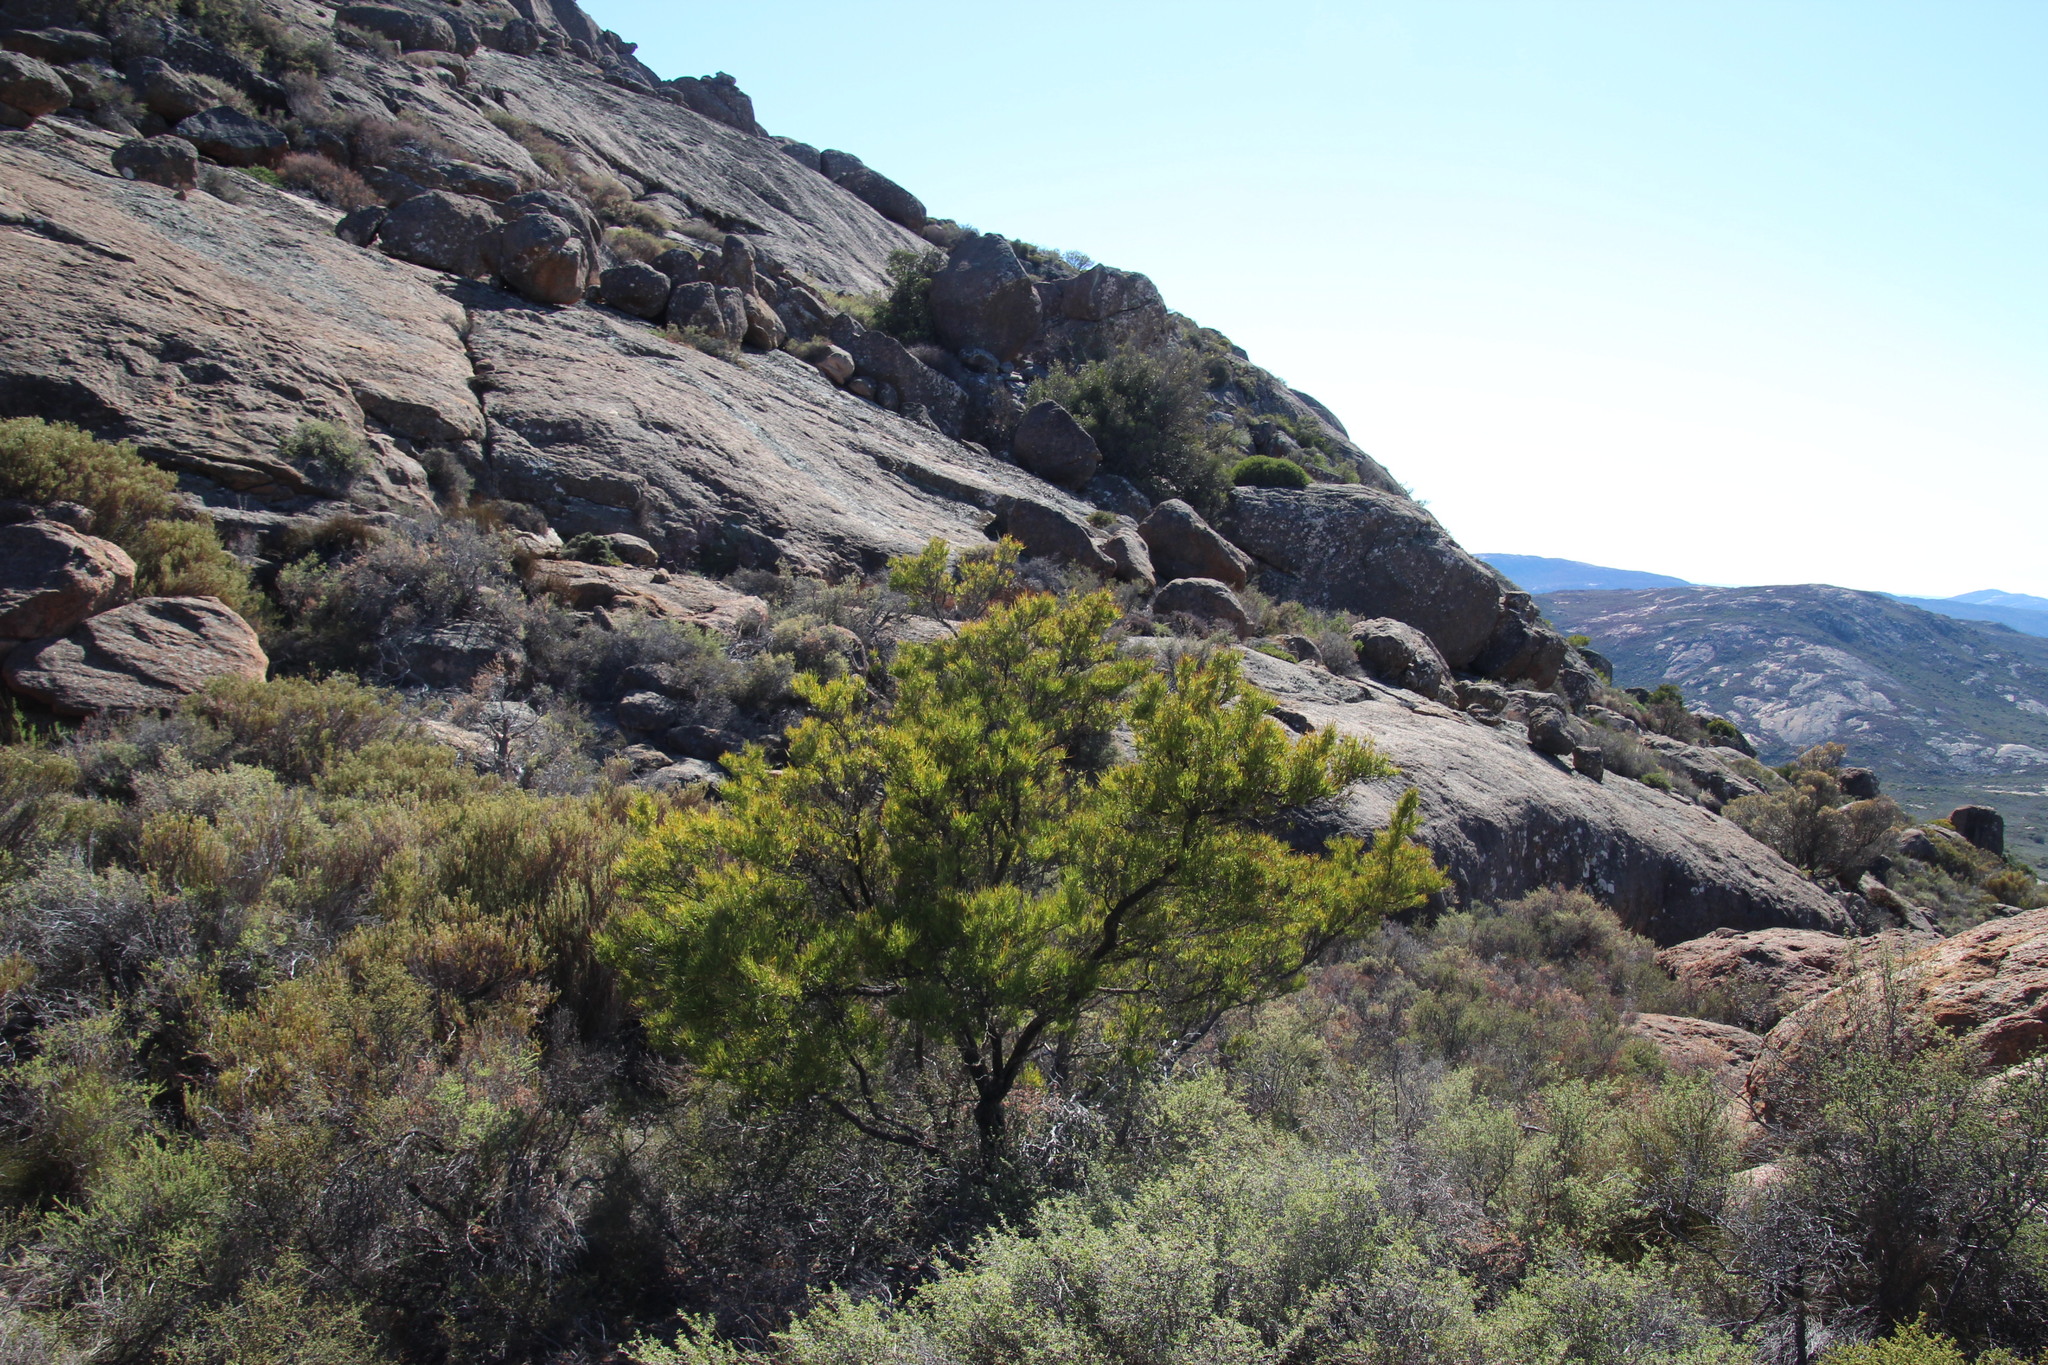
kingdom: Plantae
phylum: Tracheophyta
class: Magnoliopsida
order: Sapindales
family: Sapindaceae
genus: Dodonaea
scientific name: Dodonaea viscosa
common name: Hopbush
